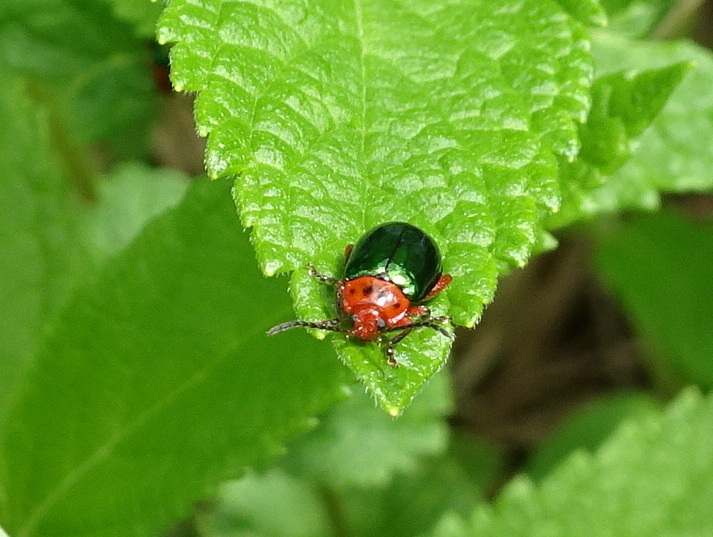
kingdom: Animalia
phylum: Arthropoda
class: Insecta
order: Coleoptera
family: Chrysomelidae
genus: Kuschelina
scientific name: Kuschelina gibbitarsa
